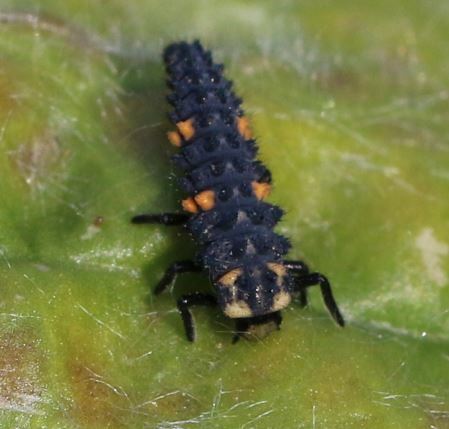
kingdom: Animalia
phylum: Arthropoda
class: Insecta
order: Coleoptera
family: Coccinellidae
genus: Coccinella
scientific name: Coccinella septempunctata
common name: Sevenspotted lady beetle
